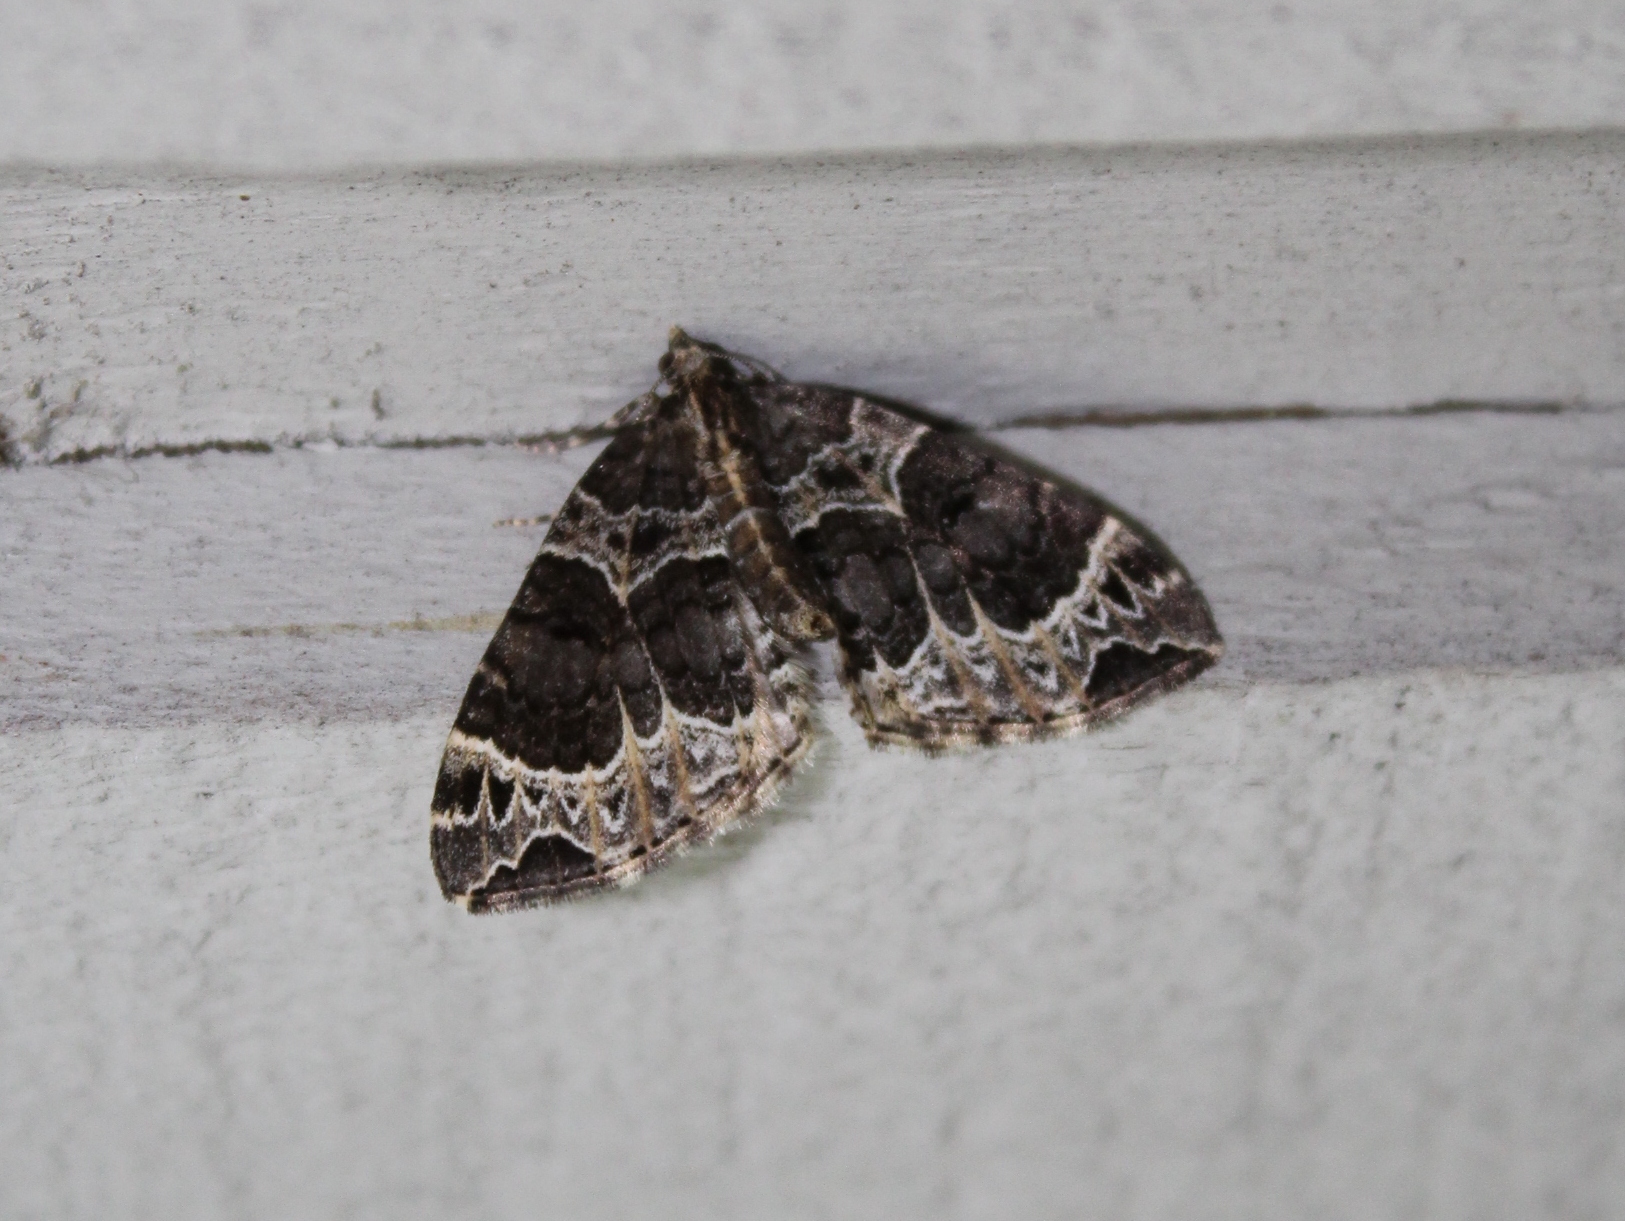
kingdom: Animalia
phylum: Arthropoda
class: Insecta
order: Lepidoptera
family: Geometridae
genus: Ecliptopera
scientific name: Ecliptopera silaceata
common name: Small phoenix
